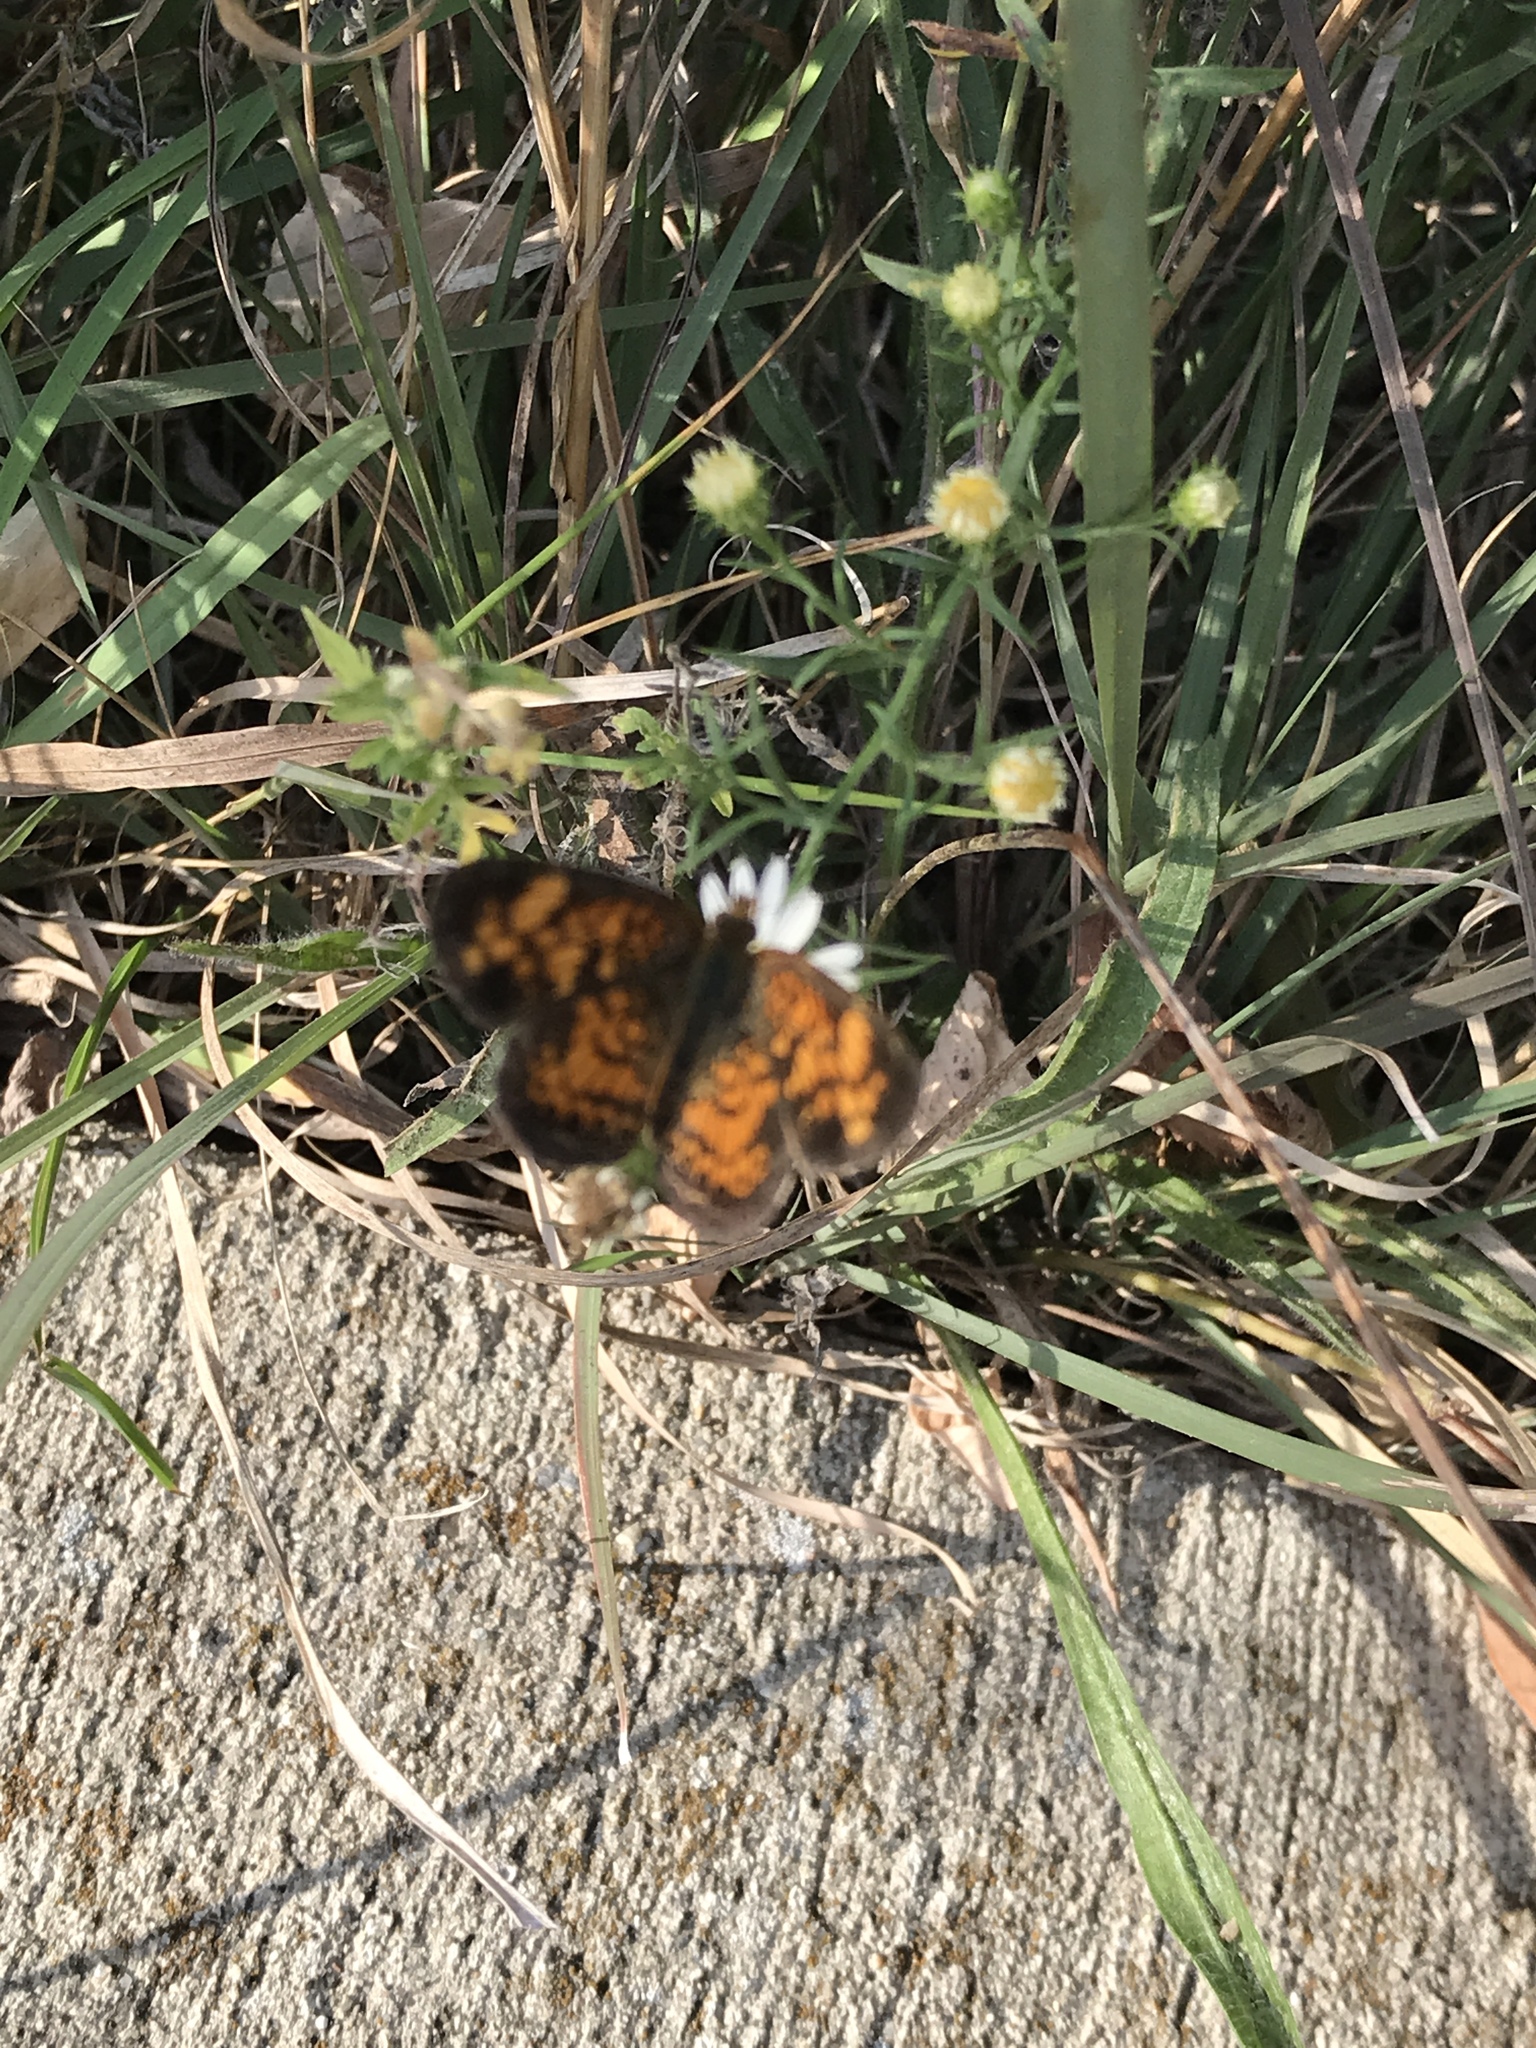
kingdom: Animalia
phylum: Arthropoda
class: Insecta
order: Lepidoptera
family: Nymphalidae
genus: Phyciodes
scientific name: Phyciodes tharos
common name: Pearl crescent
